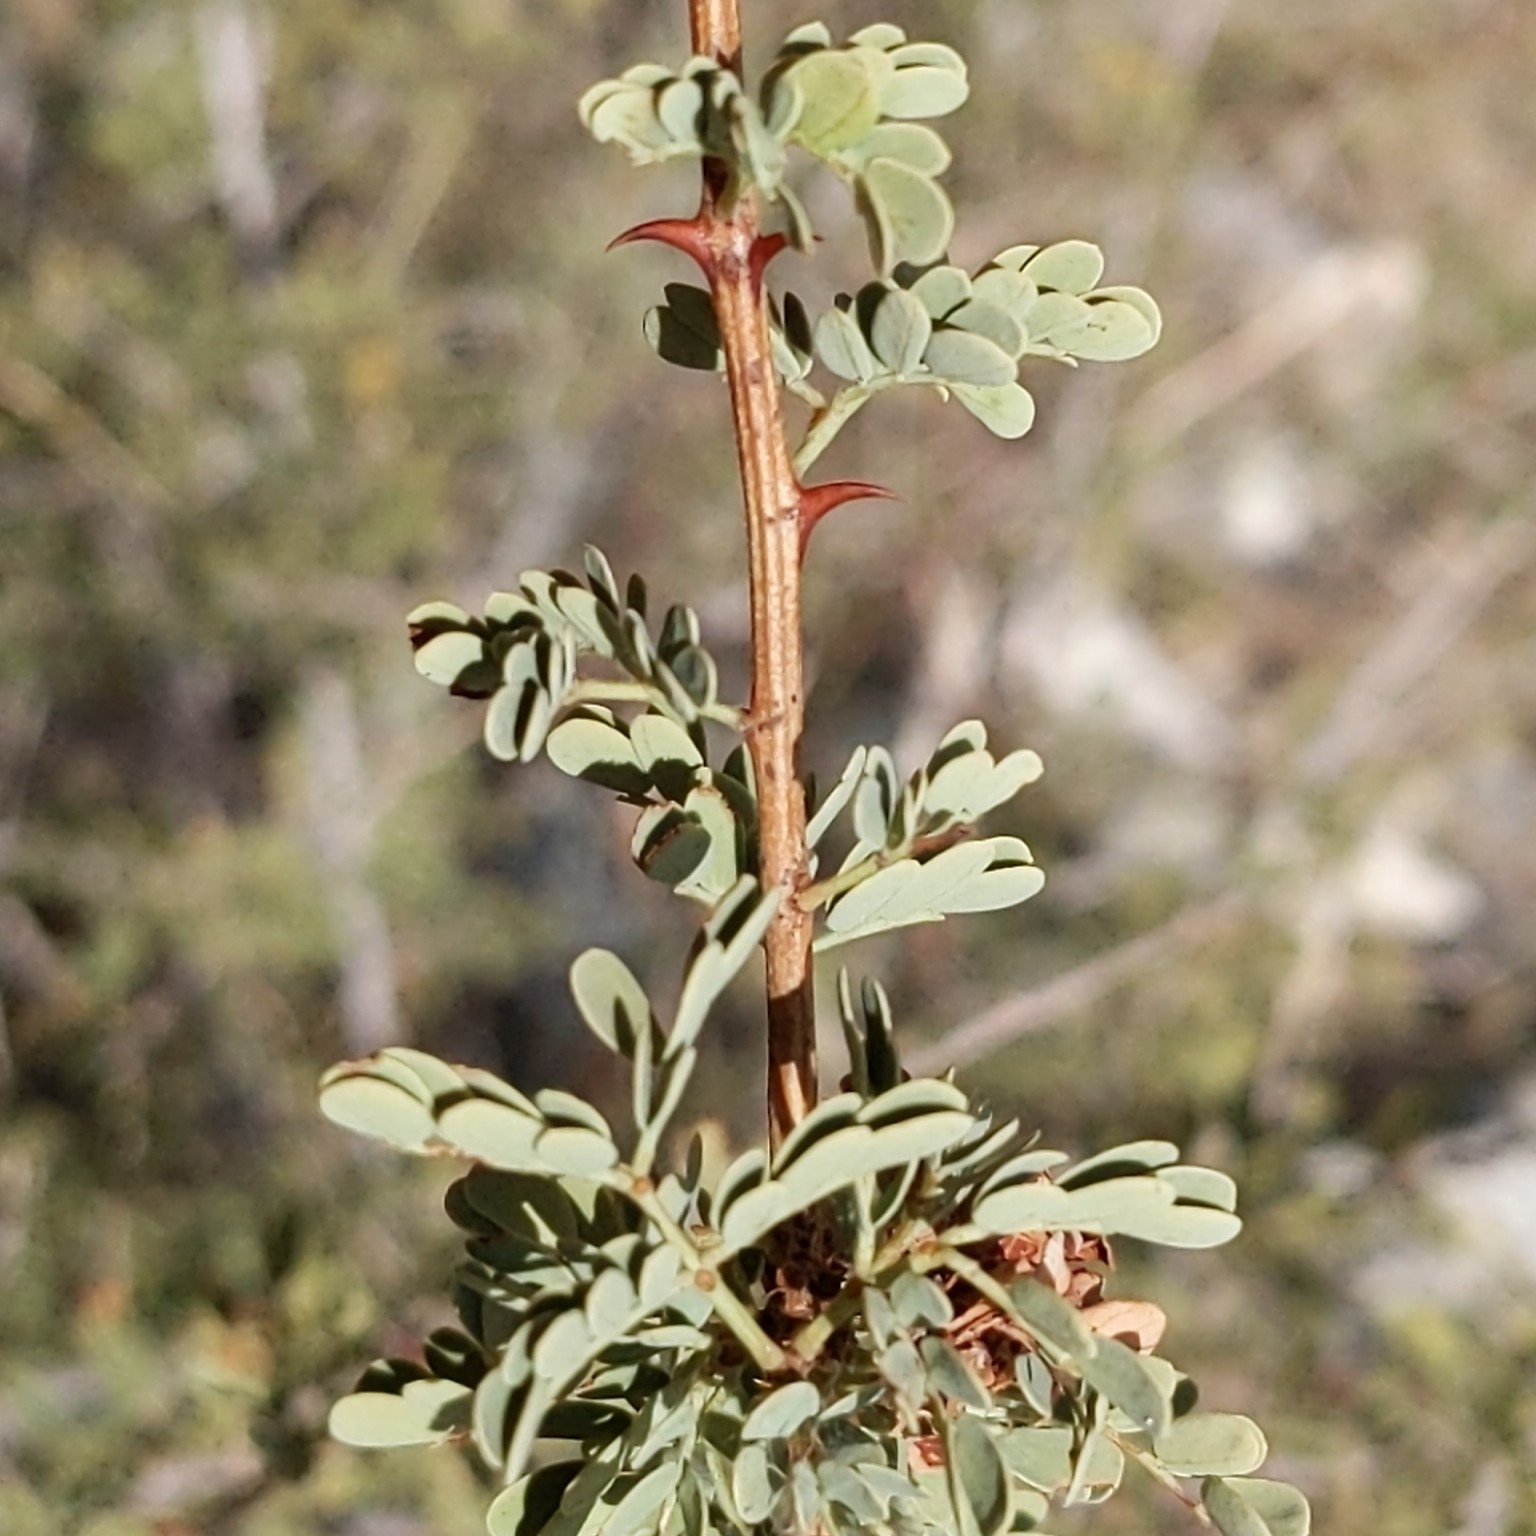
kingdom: Plantae
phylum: Tracheophyta
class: Magnoliopsida
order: Fabales
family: Fabaceae
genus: Senegalia
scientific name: Senegalia greggii
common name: Texas-mimosa
